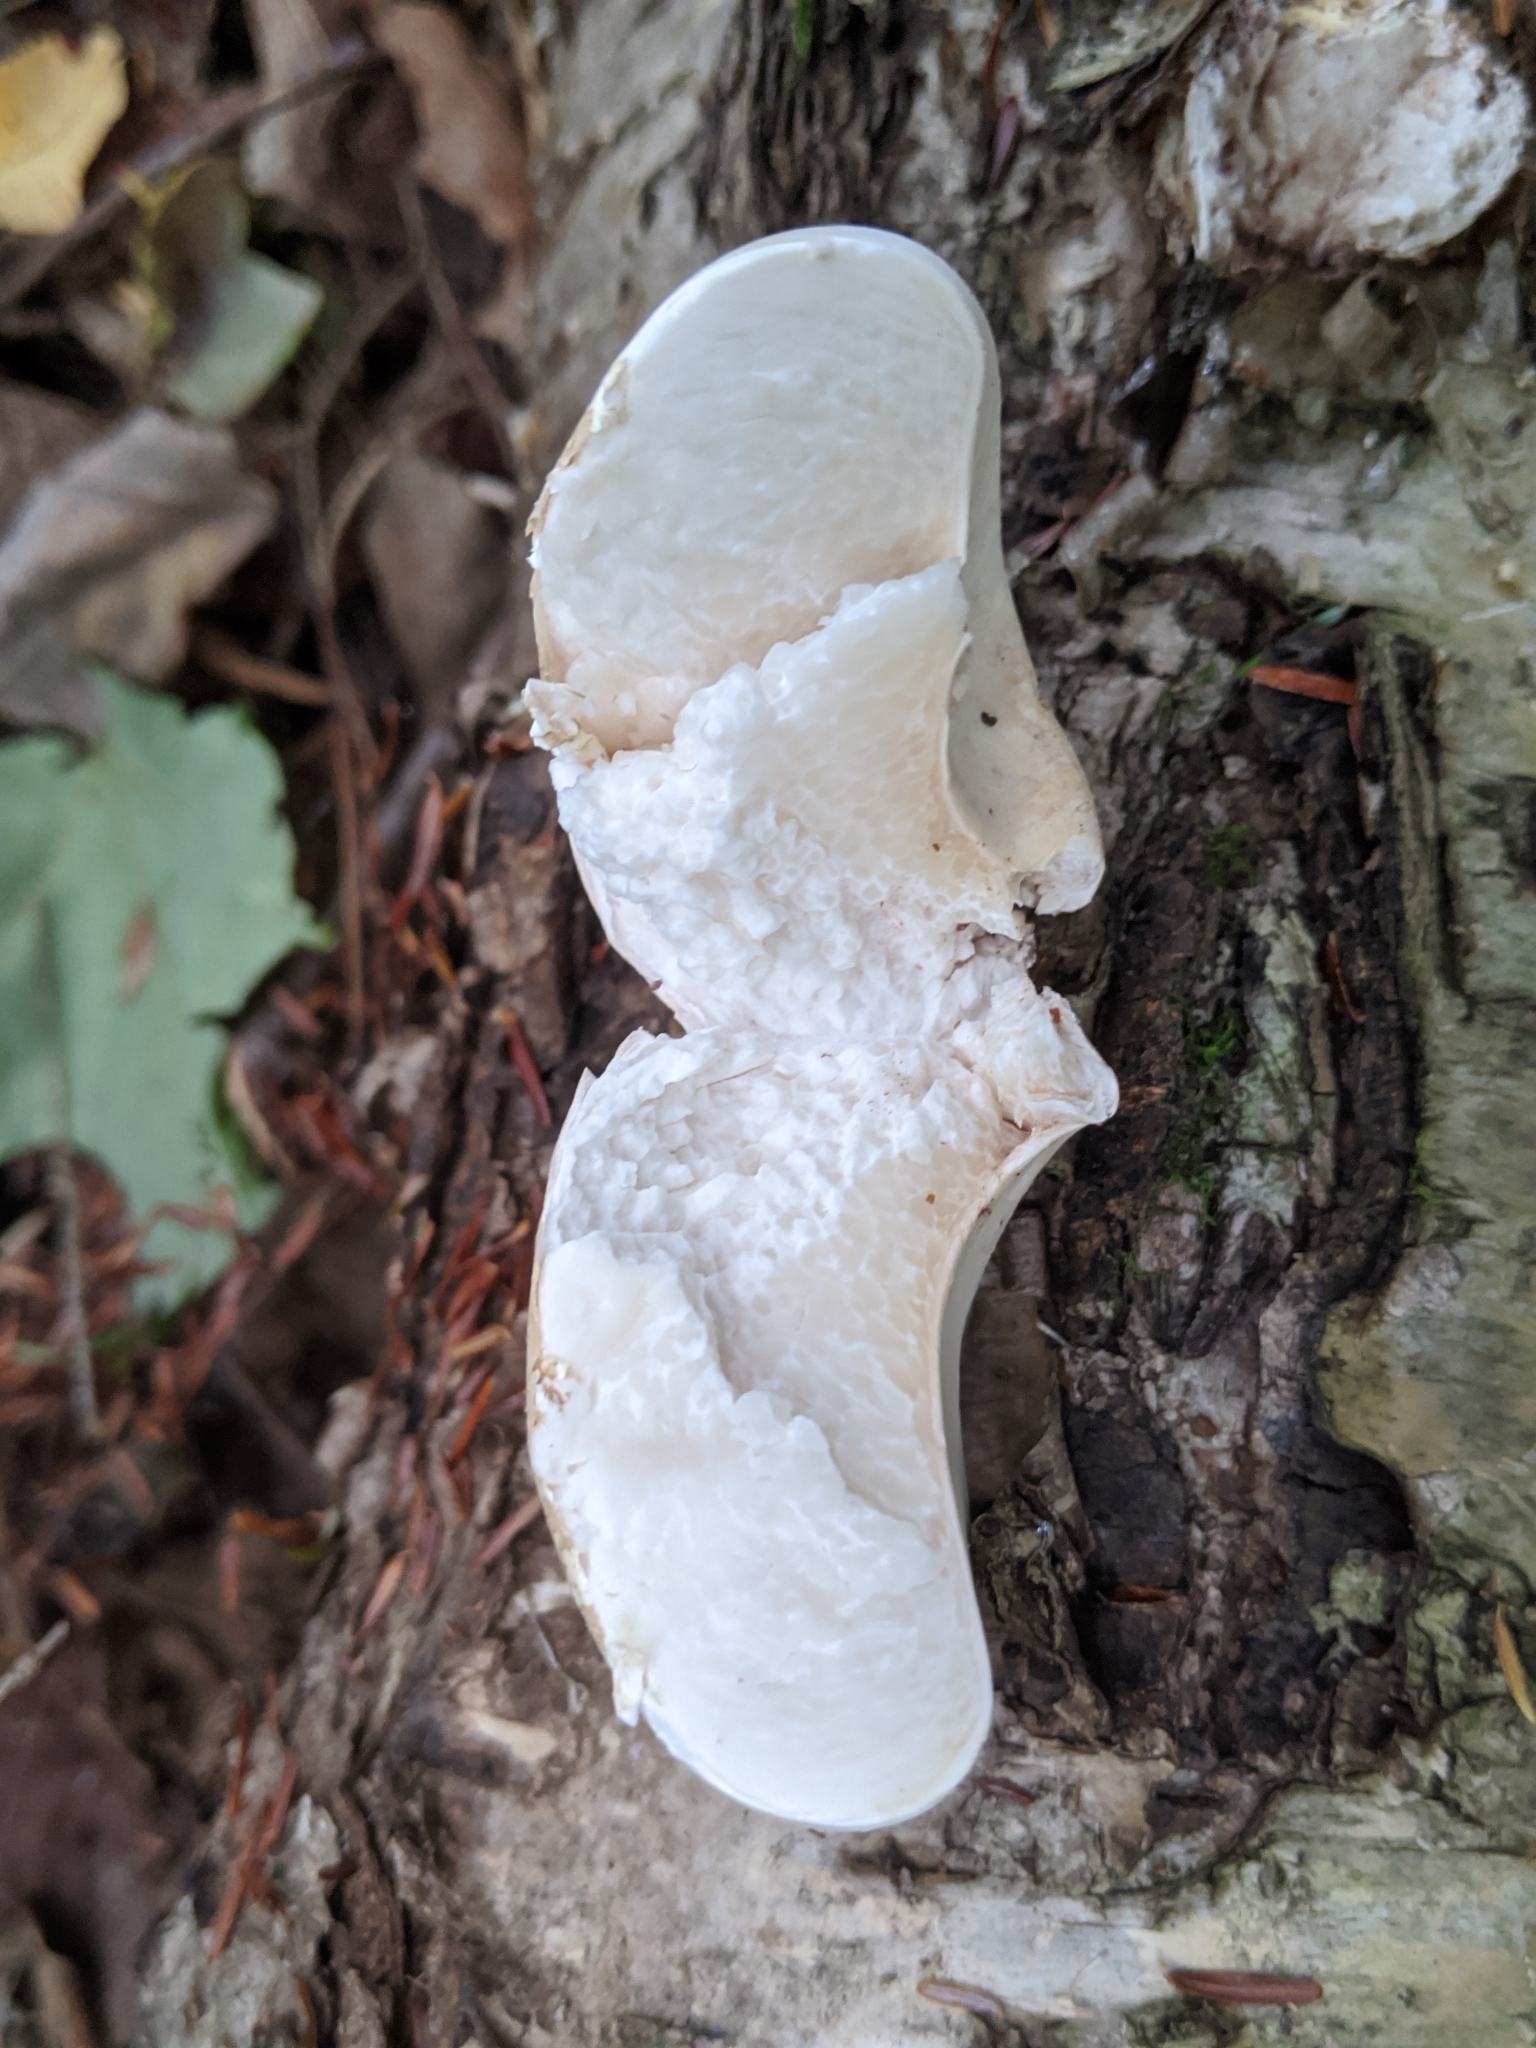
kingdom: Fungi
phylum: Basidiomycota
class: Agaricomycetes
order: Polyporales
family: Fomitopsidaceae
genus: Fomitopsis
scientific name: Fomitopsis betulina
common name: Birch polypore
